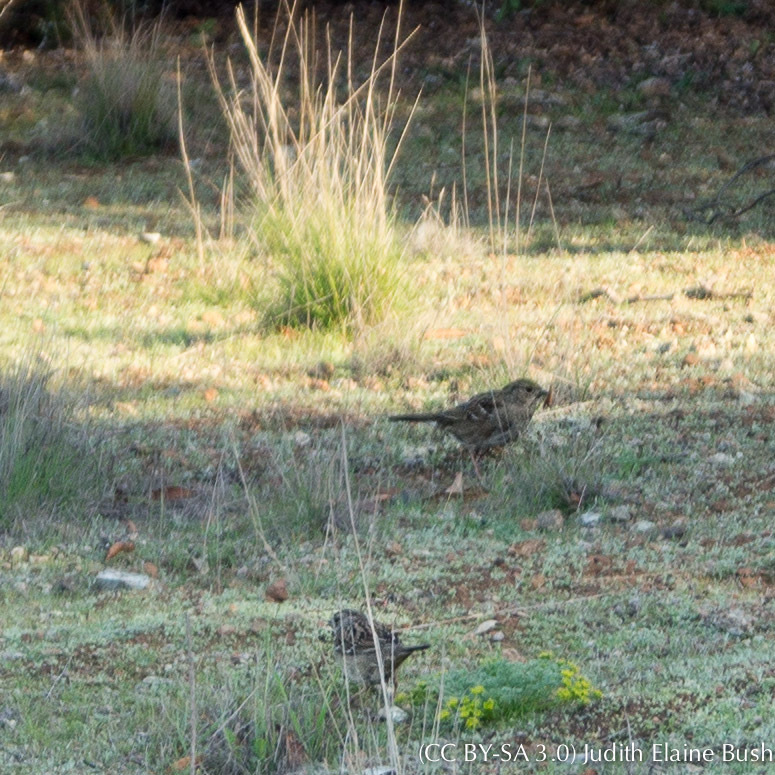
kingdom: Animalia
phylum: Chordata
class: Aves
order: Passeriformes
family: Passerellidae
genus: Zonotrichia
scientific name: Zonotrichia atricapilla
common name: Golden-crowned sparrow
